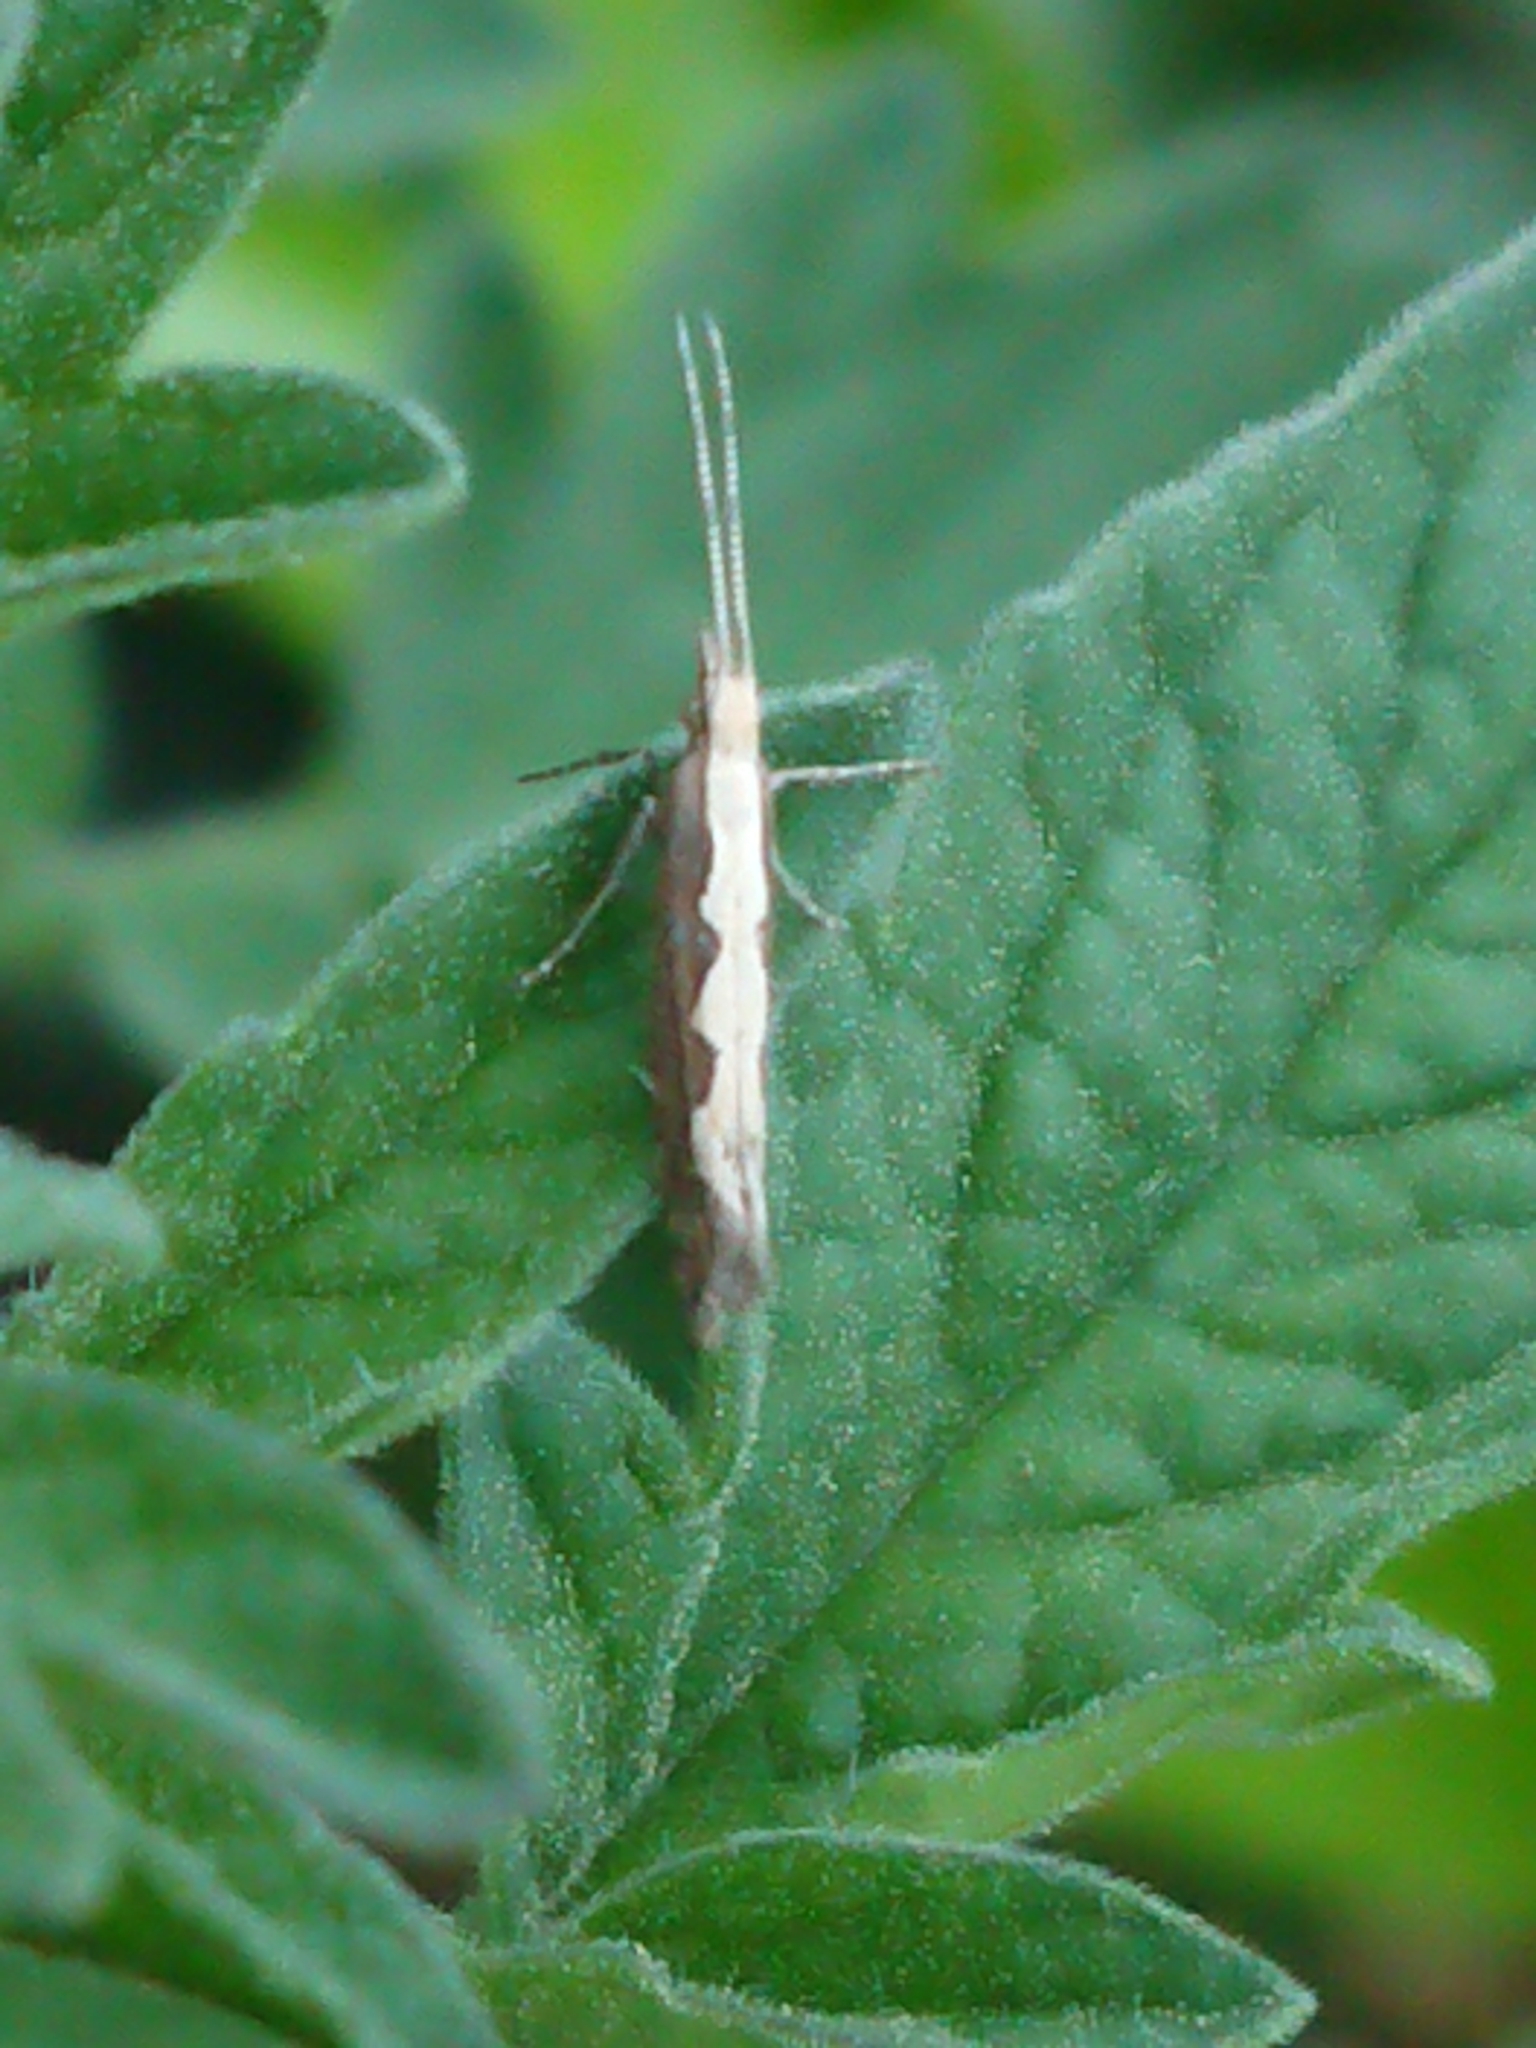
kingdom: Animalia
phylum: Arthropoda
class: Insecta
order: Lepidoptera
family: Plutellidae
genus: Plutella
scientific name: Plutella xylostella
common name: Diamond-back moth
